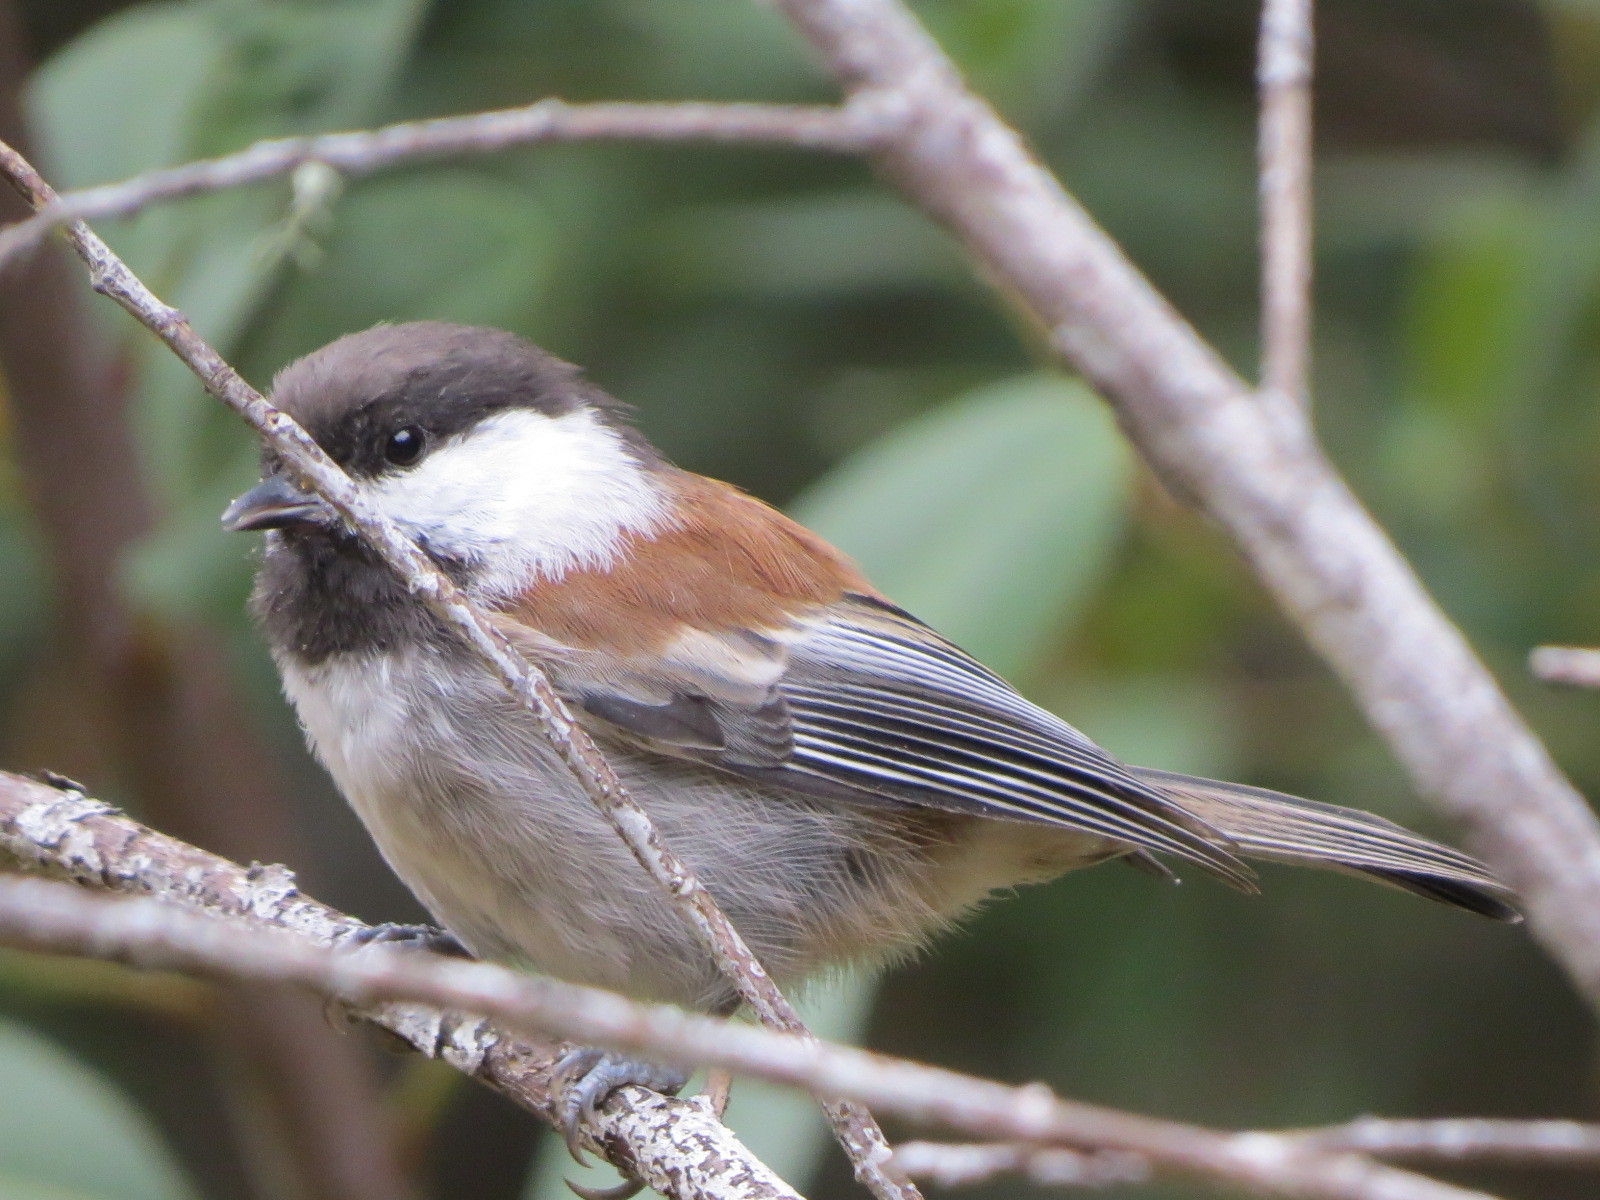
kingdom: Animalia
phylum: Chordata
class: Aves
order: Passeriformes
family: Paridae
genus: Poecile
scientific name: Poecile rufescens
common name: Chestnut-backed chickadee
